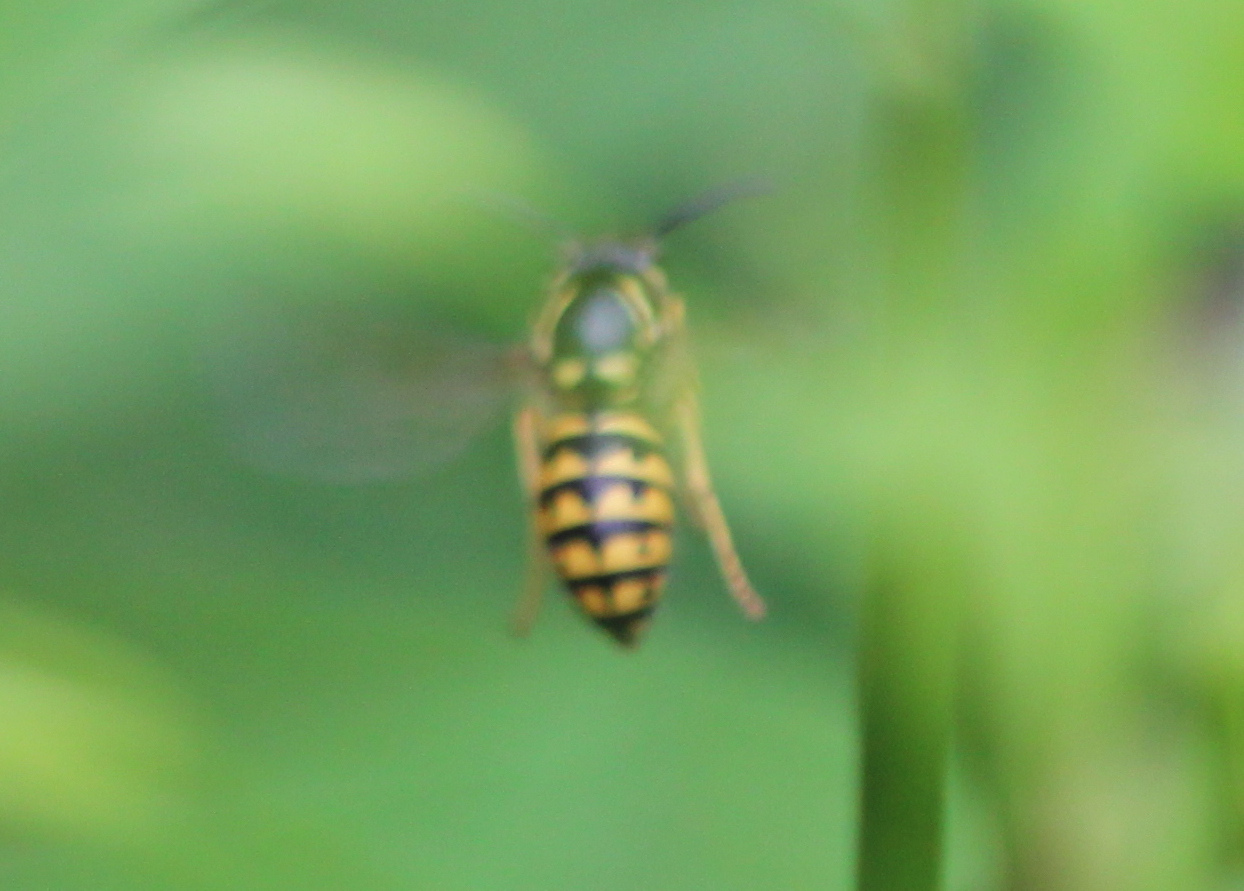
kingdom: Animalia
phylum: Arthropoda
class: Insecta
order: Hymenoptera
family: Vespidae
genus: Dolichovespula
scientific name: Dolichovespula arenaria
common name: Aerial yellowjacket
